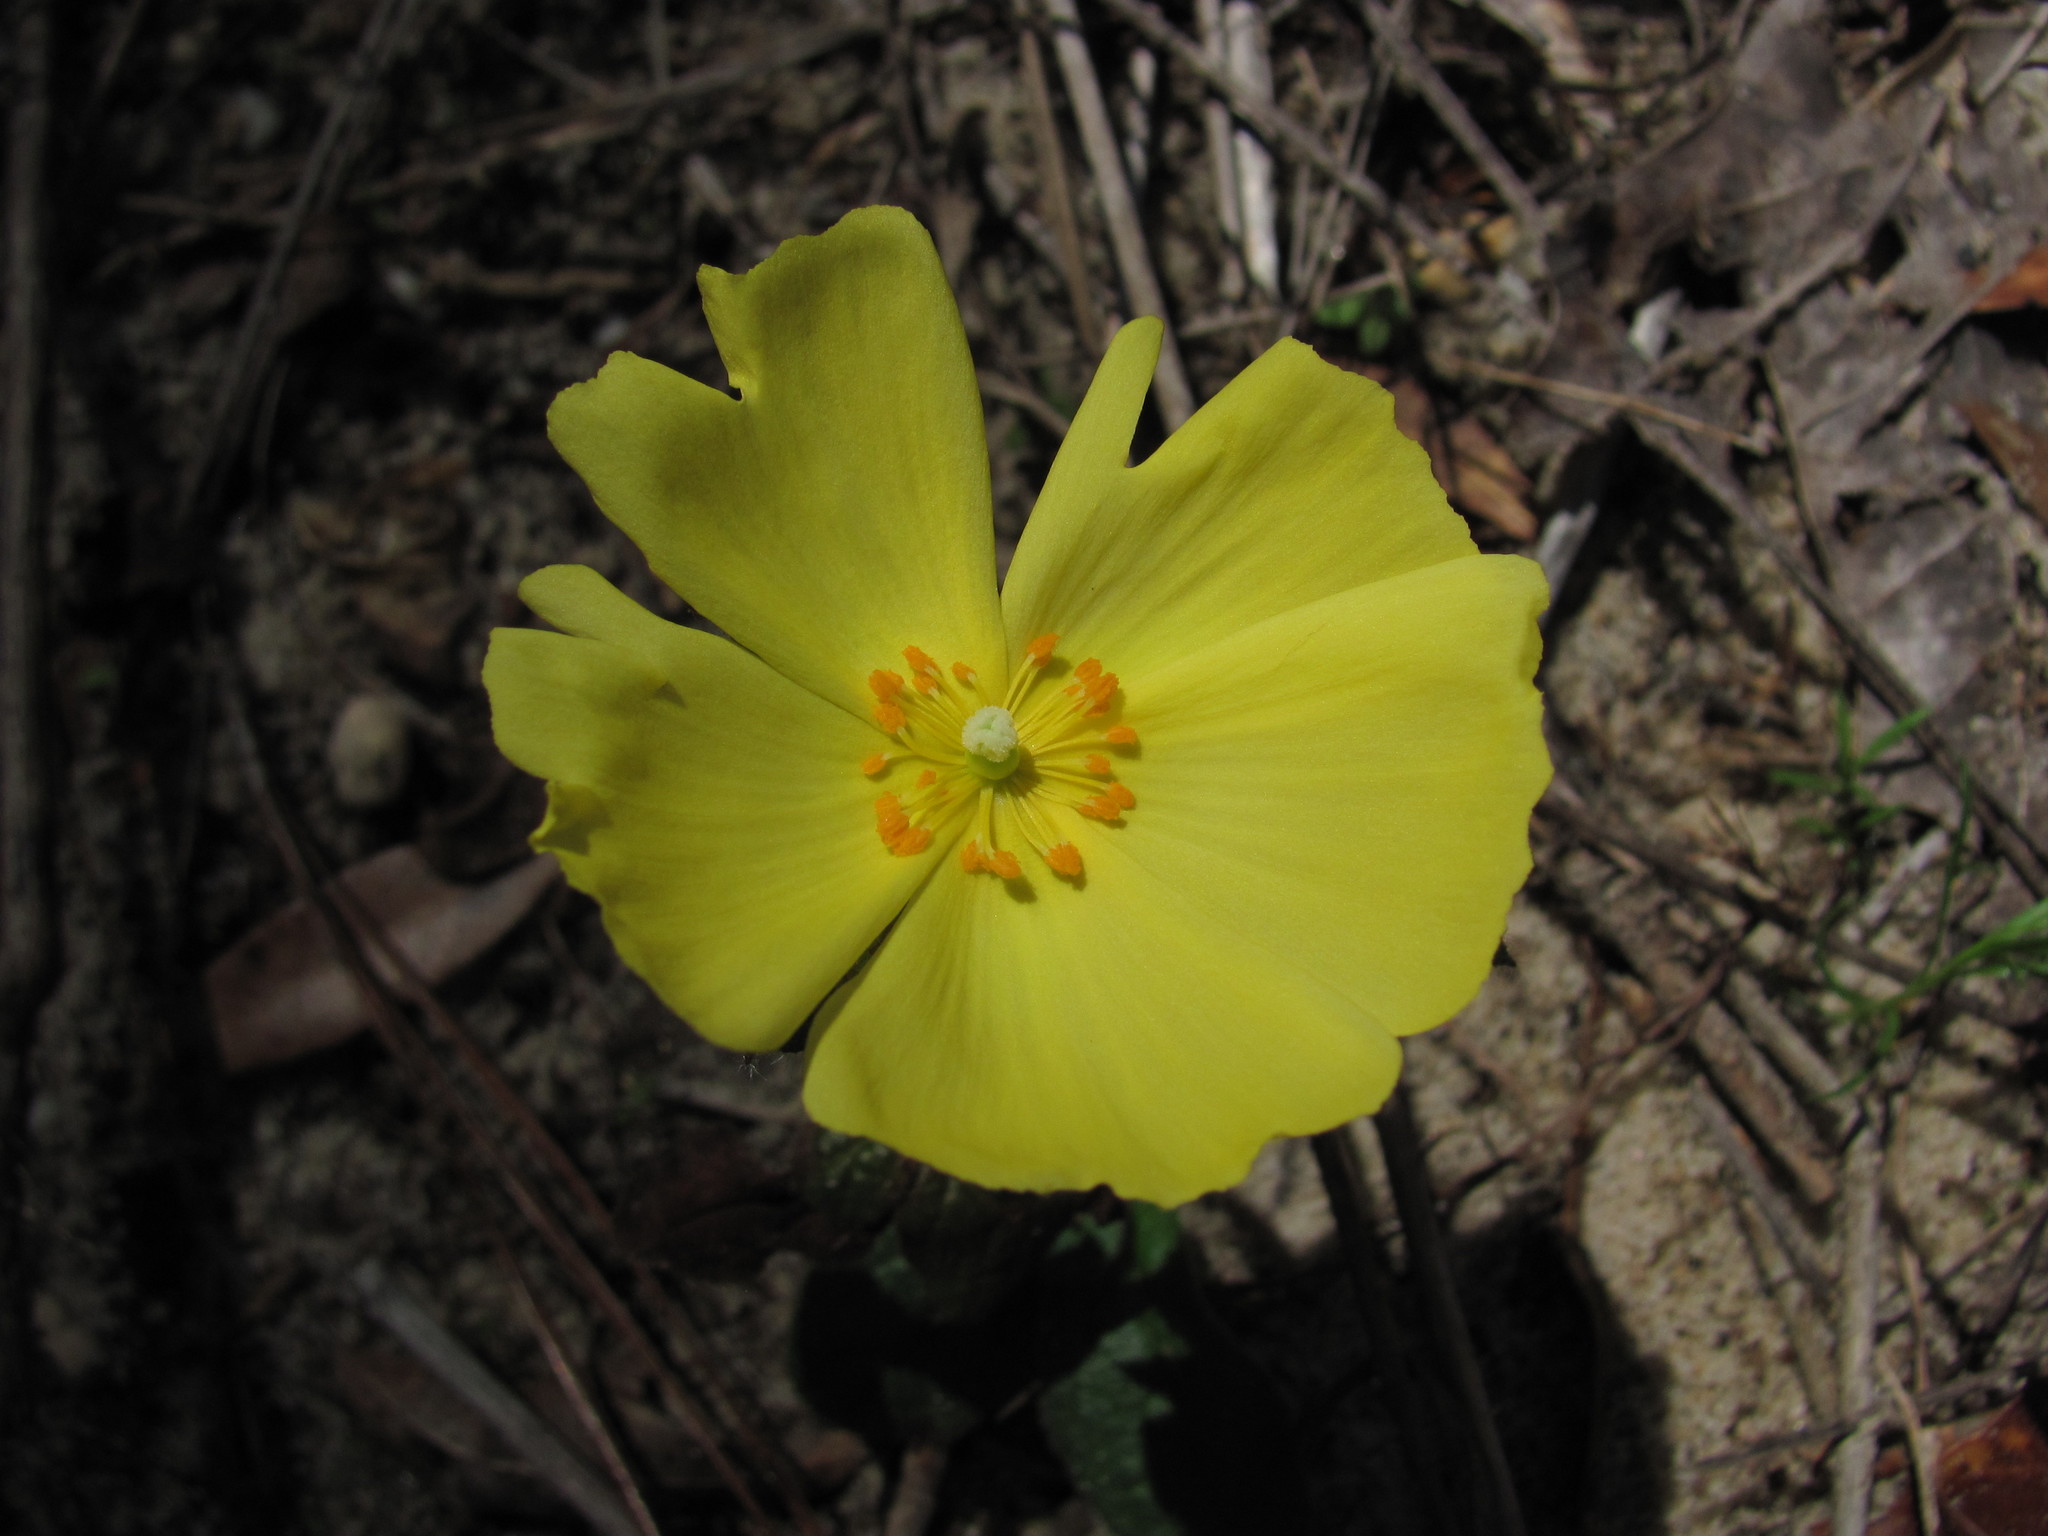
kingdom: Plantae
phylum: Tracheophyta
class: Magnoliopsida
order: Malvales
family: Cistaceae
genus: Crocanthemum
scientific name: Crocanthemum carolinianum
